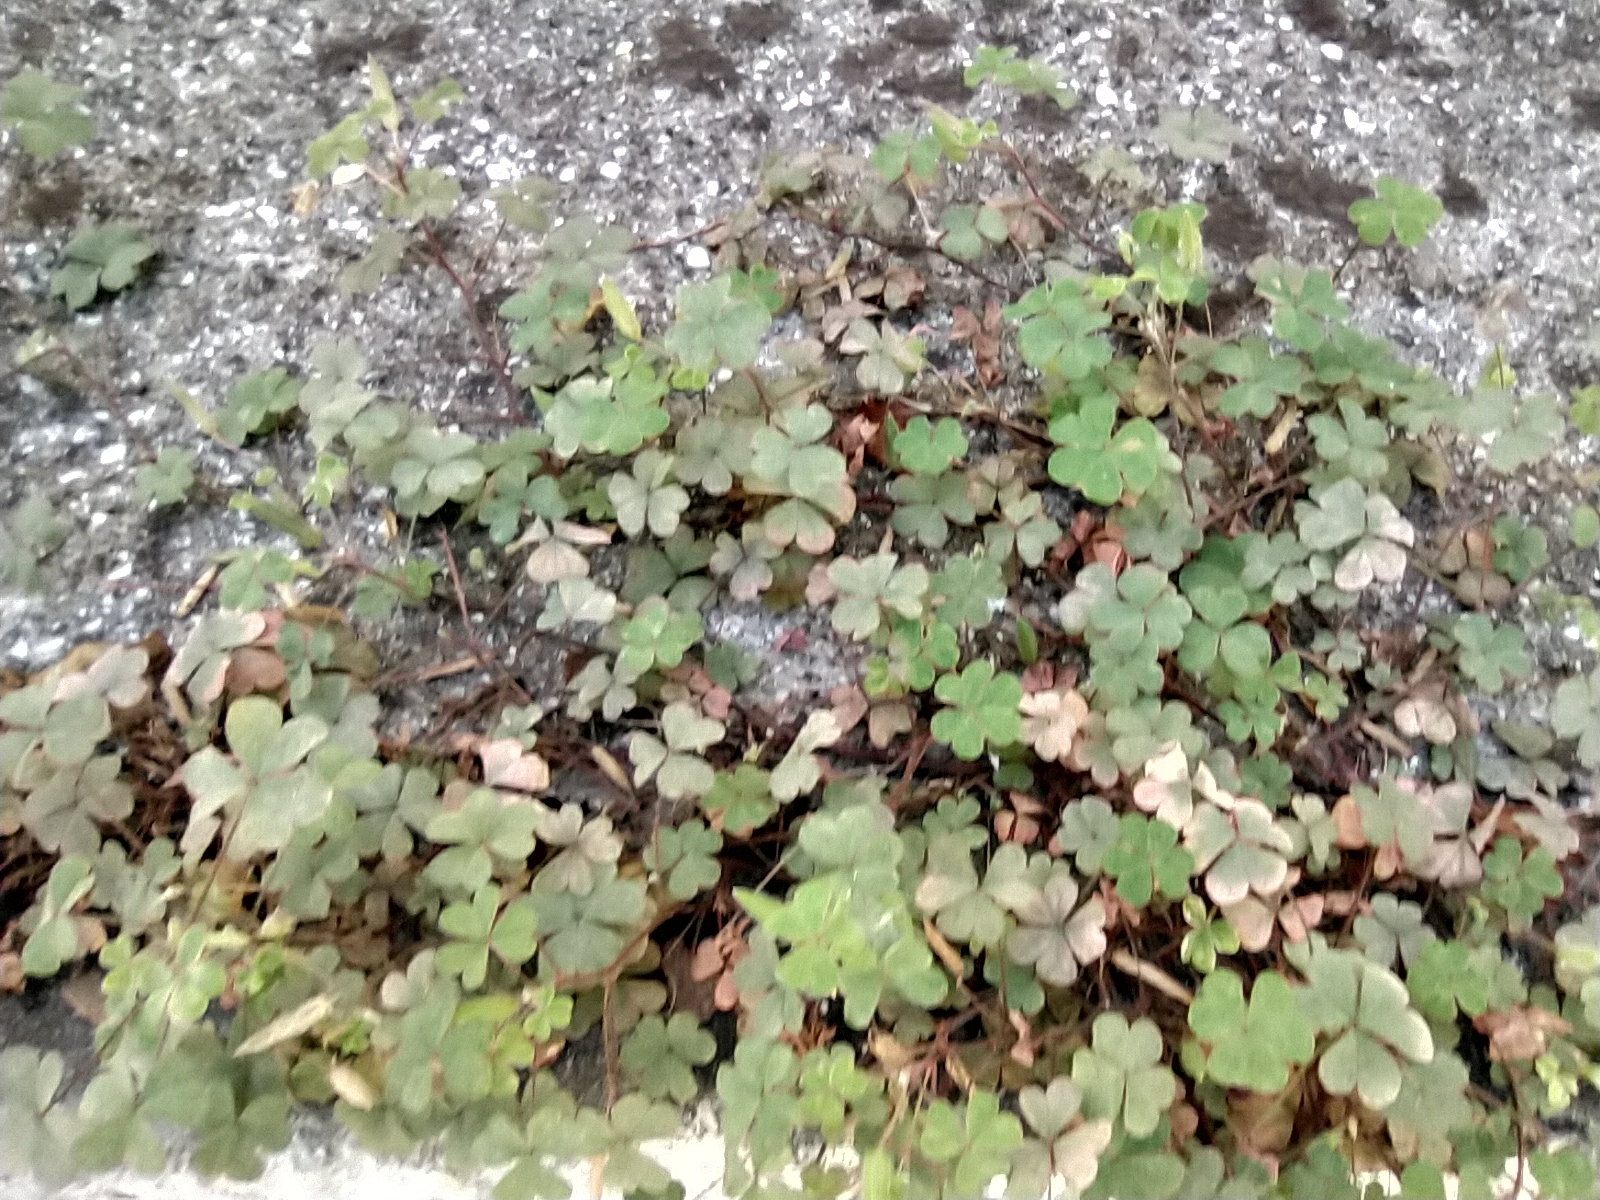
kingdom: Plantae
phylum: Tracheophyta
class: Magnoliopsida
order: Oxalidales
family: Oxalidaceae
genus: Oxalis
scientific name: Oxalis corniculata
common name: Procumbent yellow-sorrel
